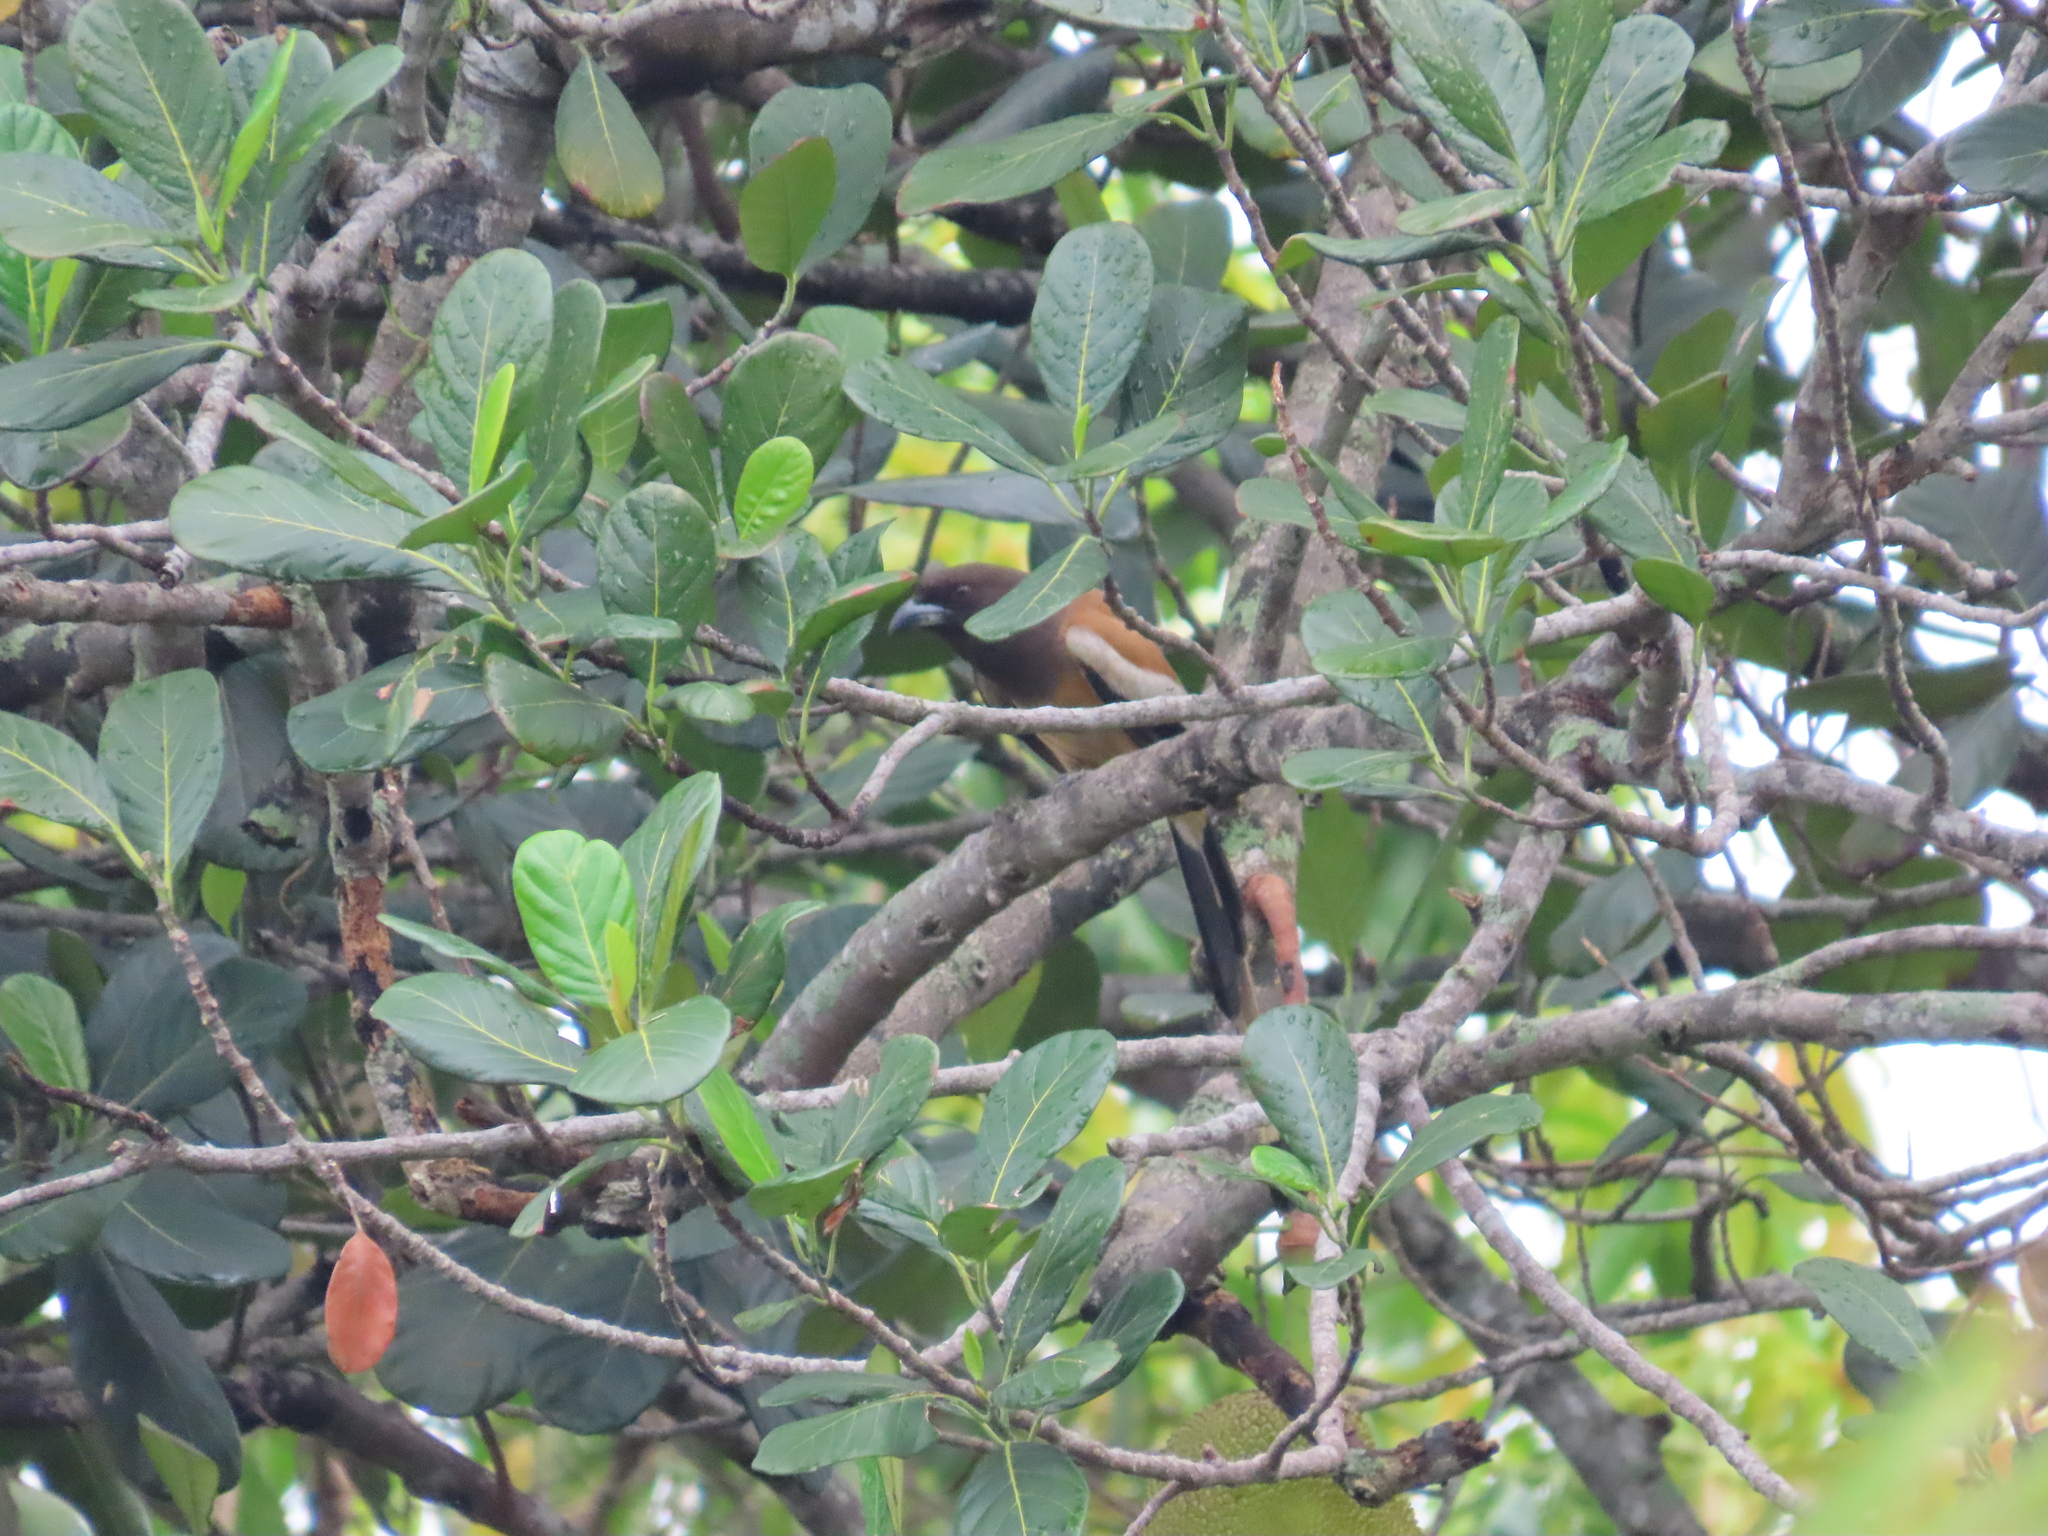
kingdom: Animalia
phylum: Chordata
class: Aves
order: Passeriformes
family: Corvidae
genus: Dendrocitta
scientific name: Dendrocitta vagabunda
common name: Rufous treepie
